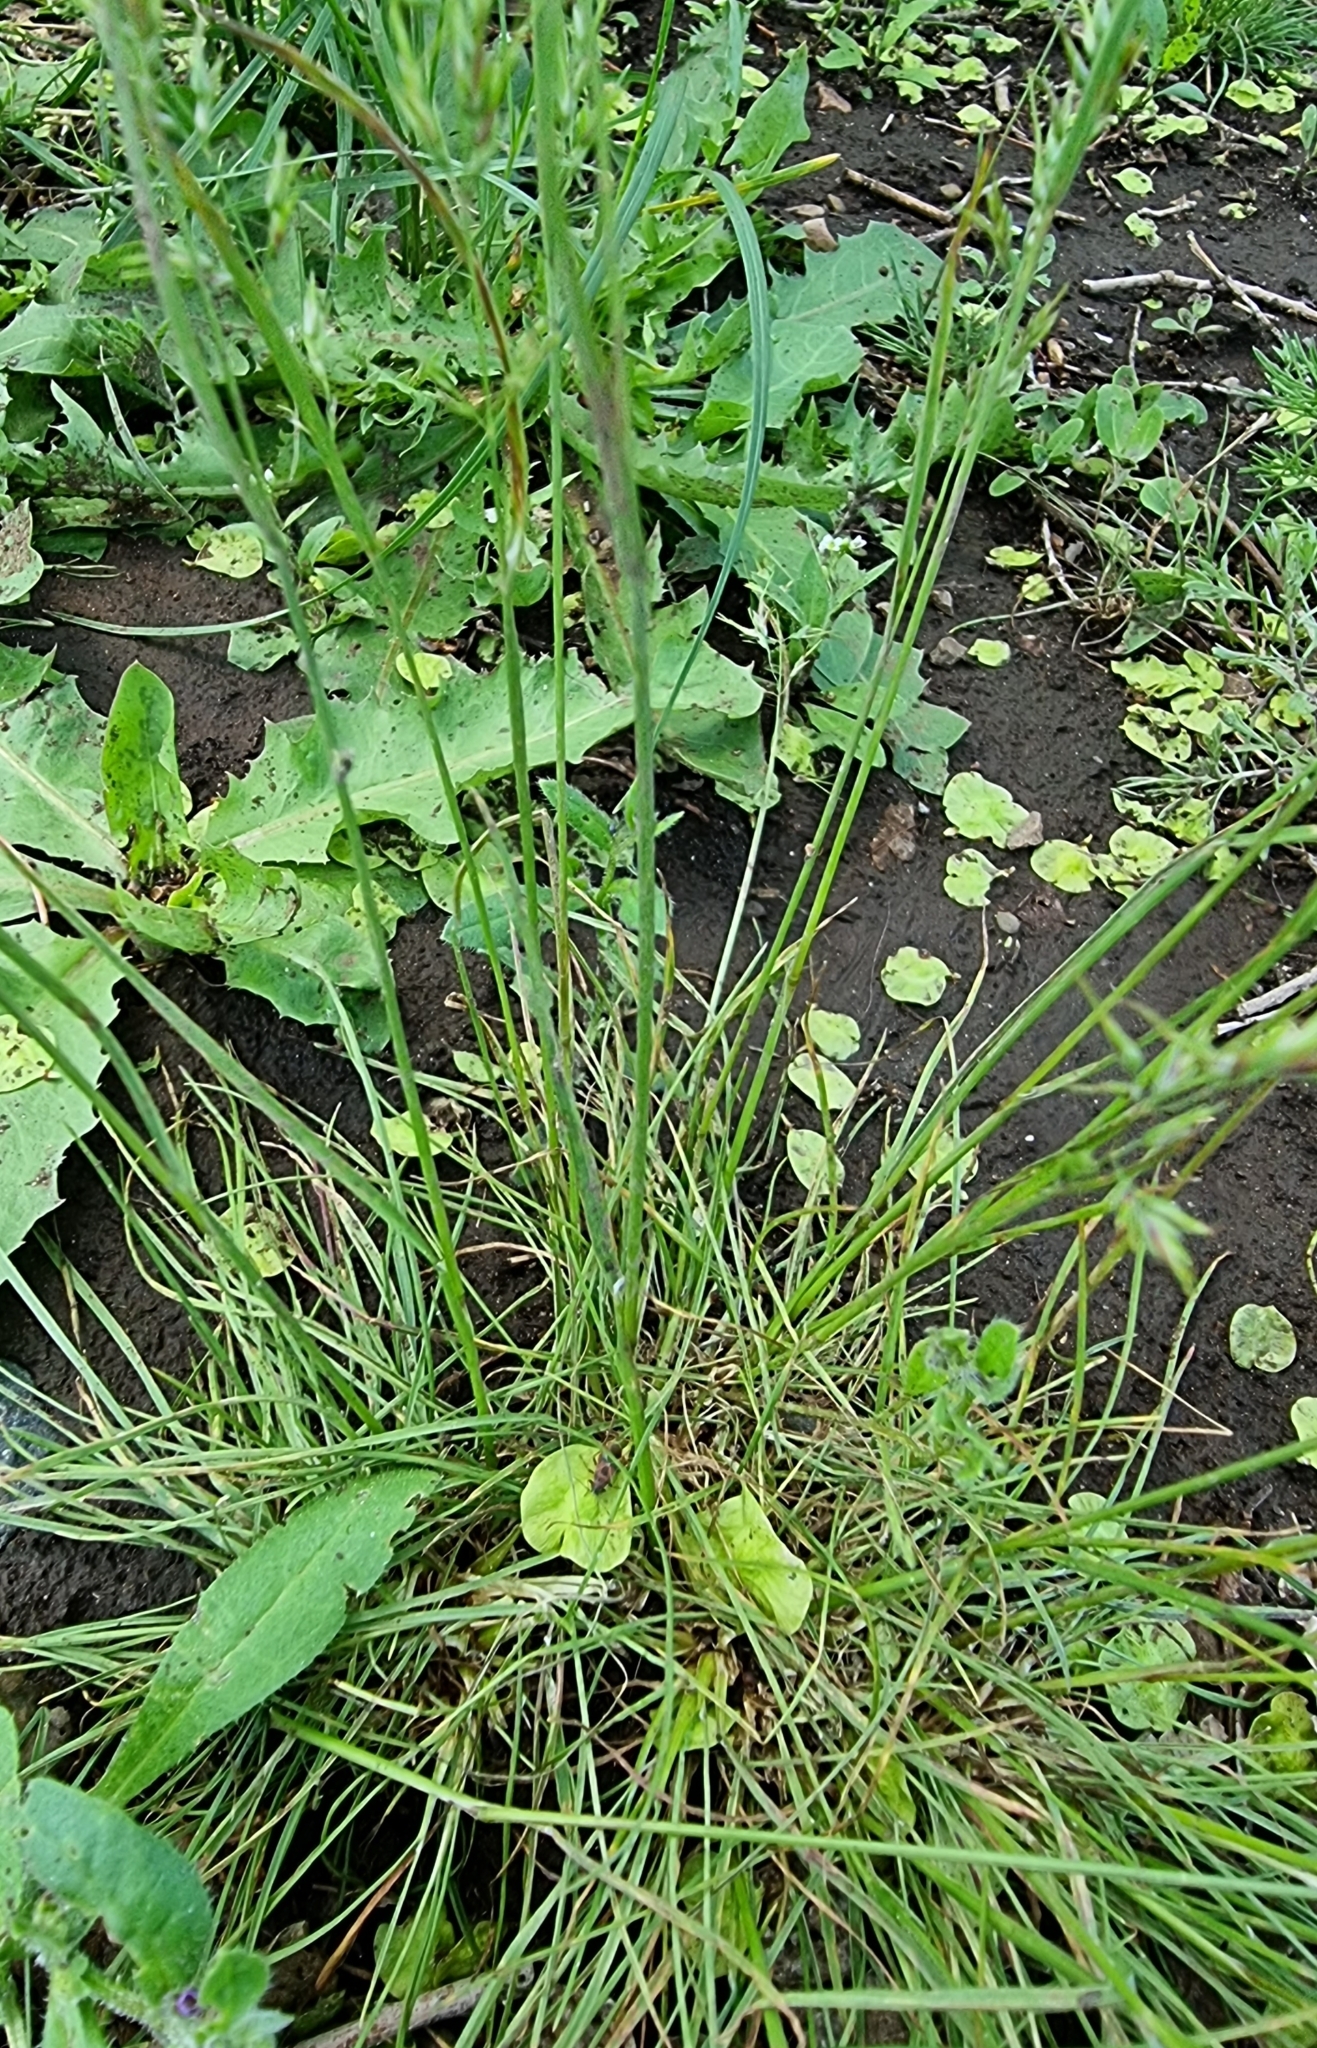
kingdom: Plantae
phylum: Tracheophyta
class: Liliopsida
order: Poales
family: Poaceae
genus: Poa
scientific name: Poa bulbosa
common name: Bulbous bluegrass
